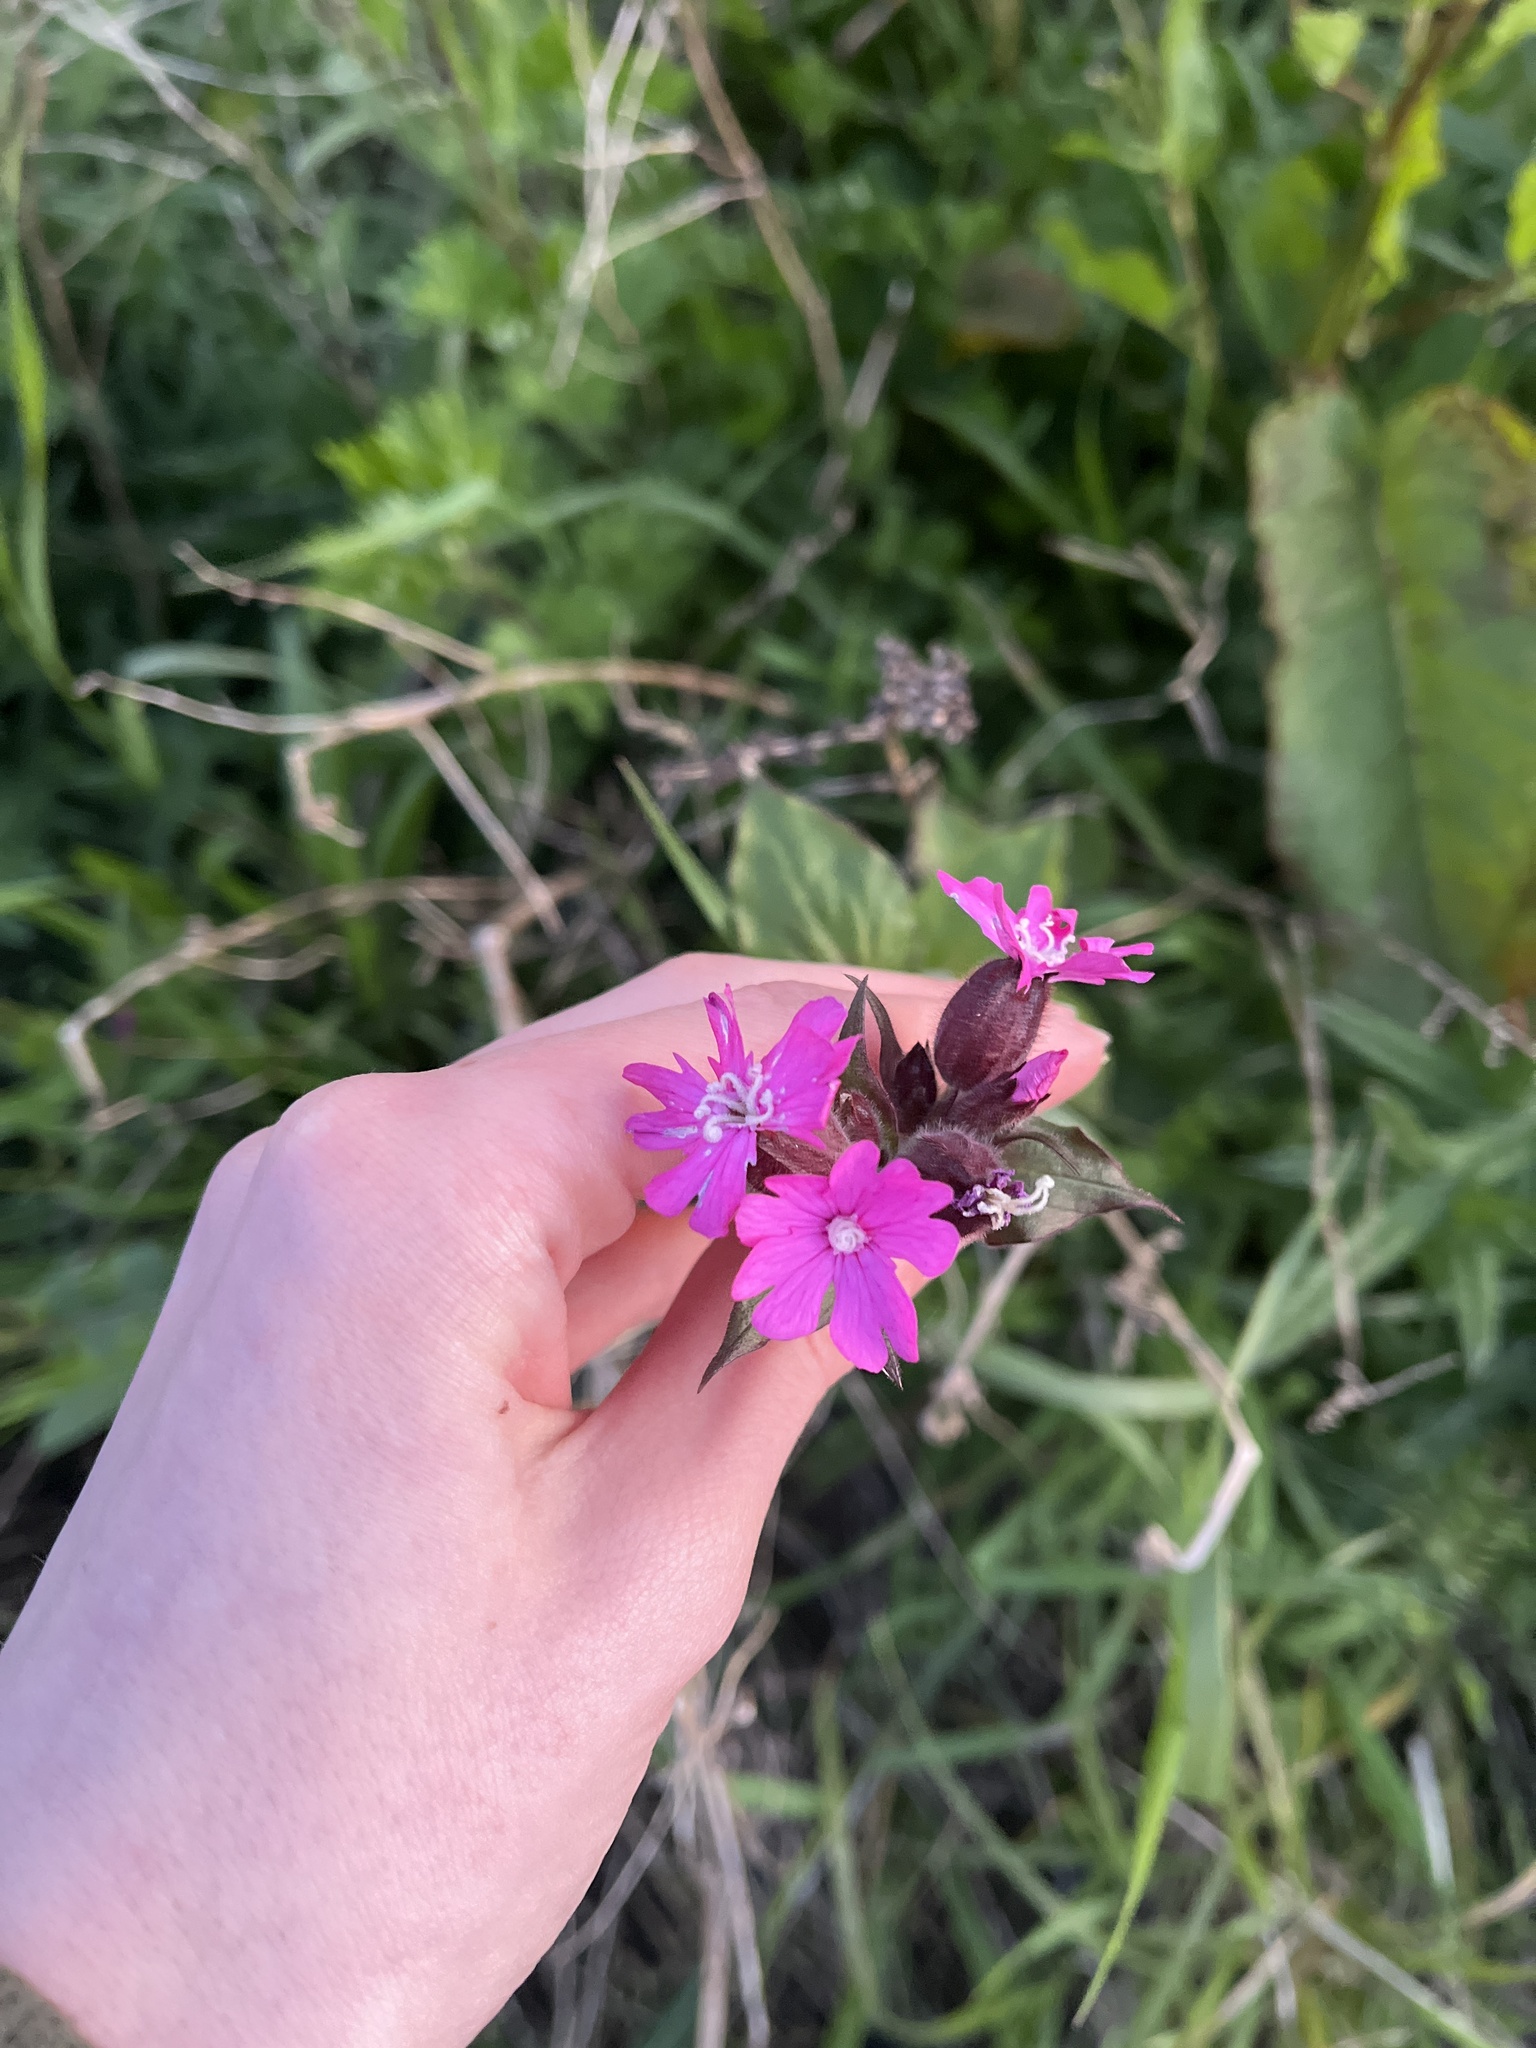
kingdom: Plantae
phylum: Tracheophyta
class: Magnoliopsida
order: Caryophyllales
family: Caryophyllaceae
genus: Silene
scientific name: Silene dioica
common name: Red campion
